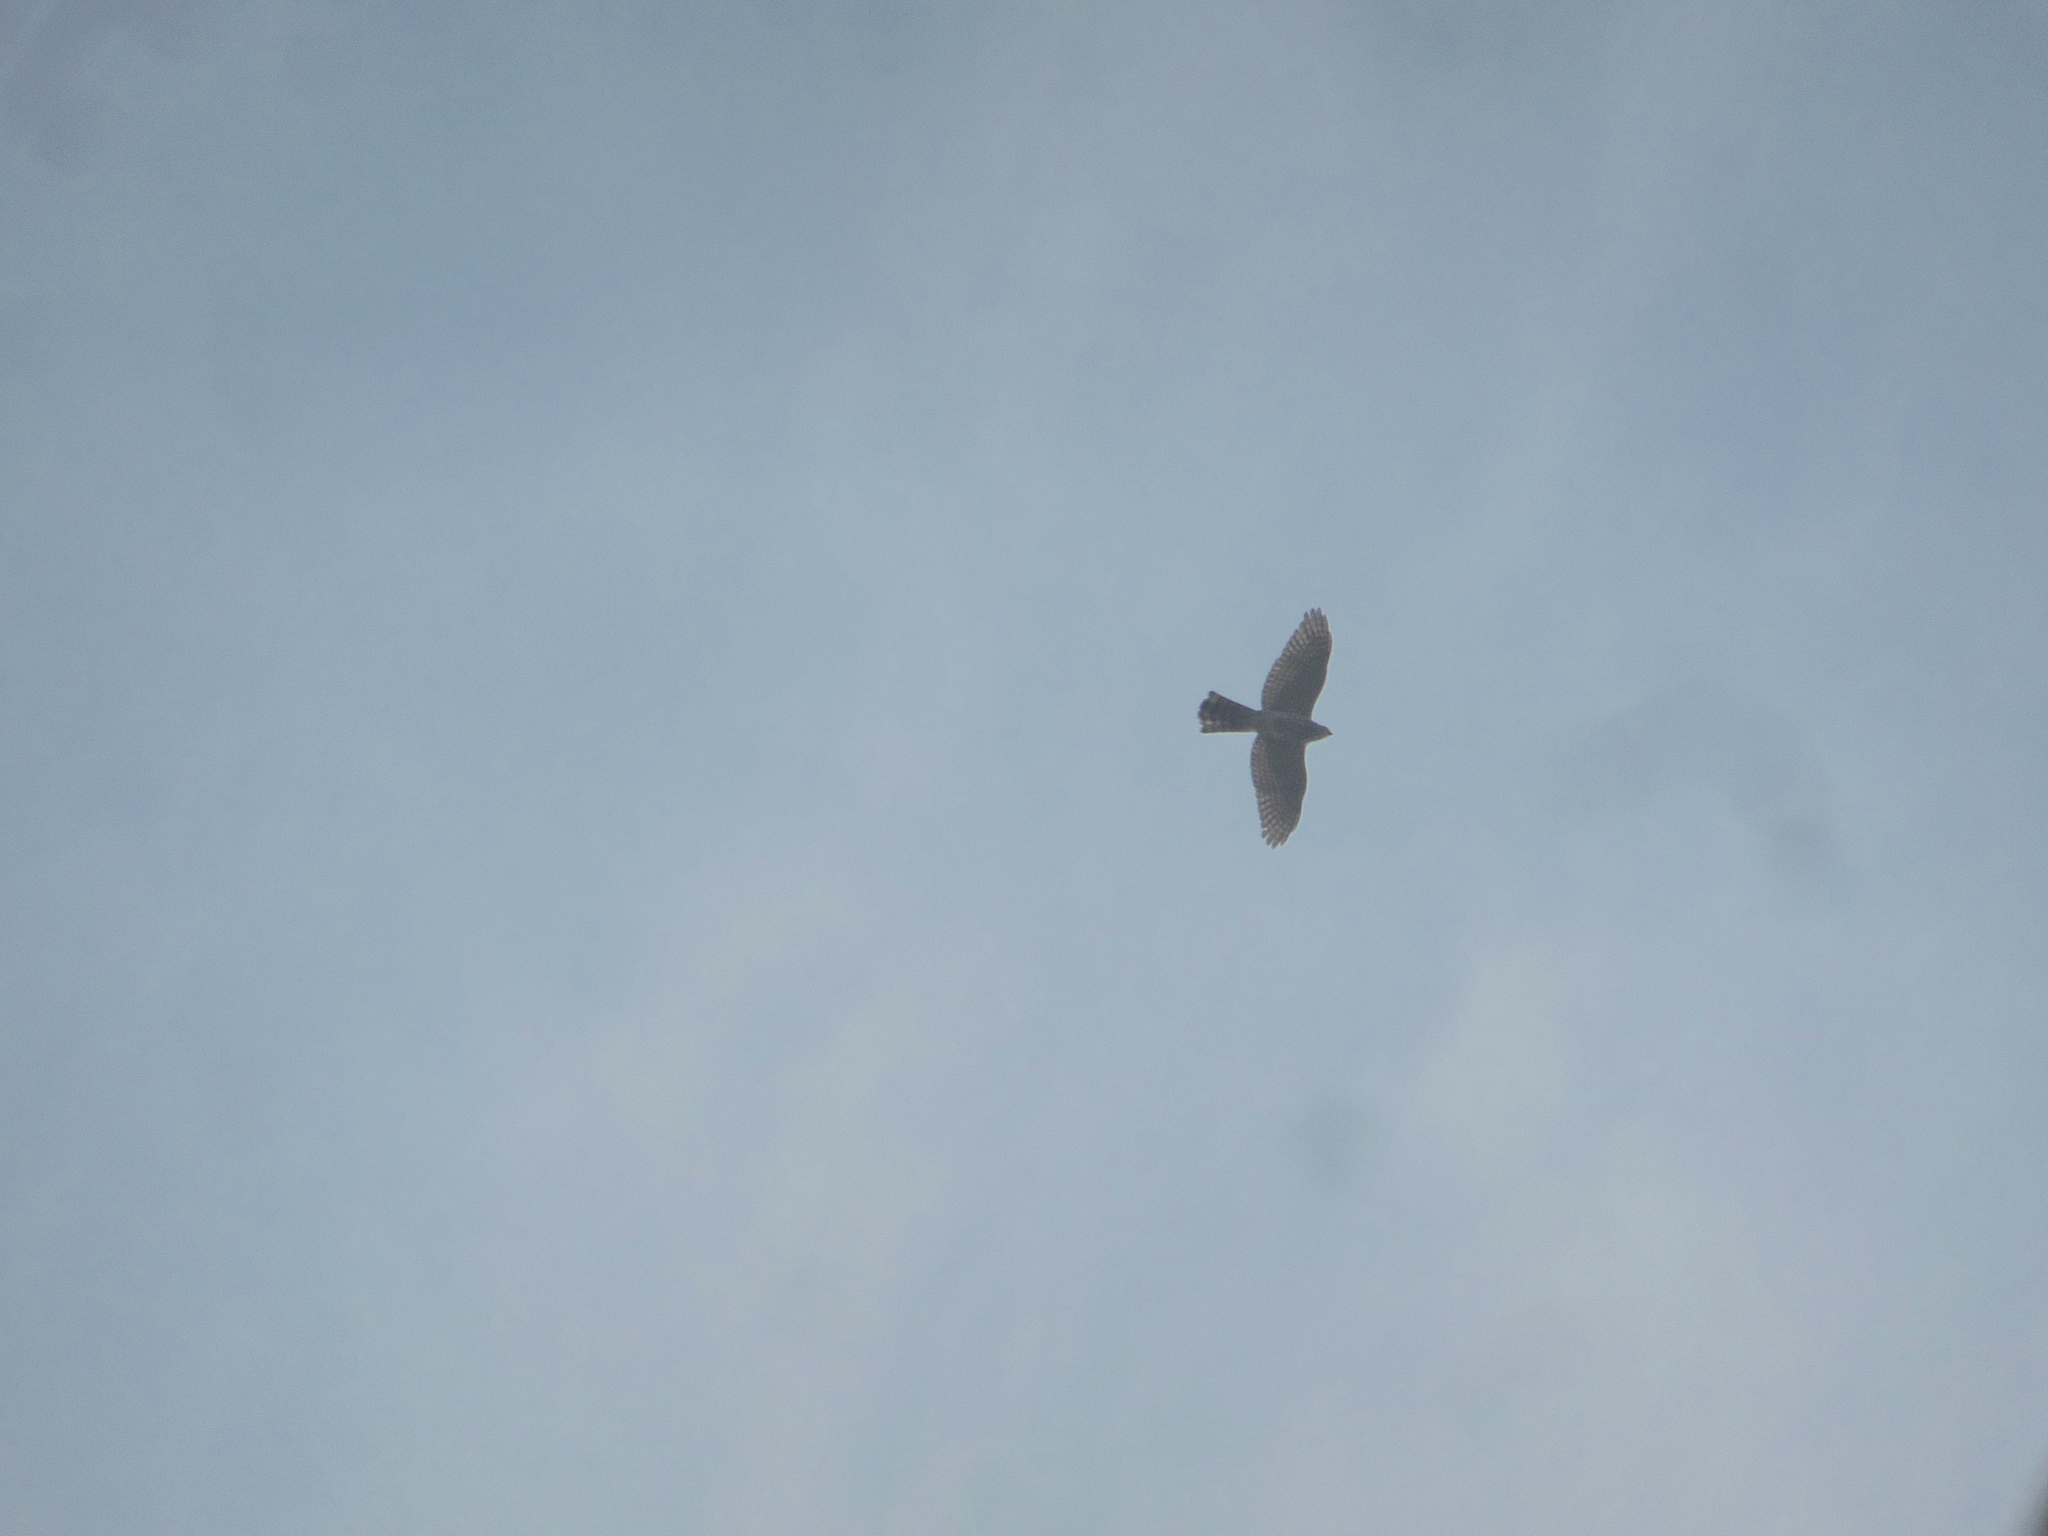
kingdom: Animalia
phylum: Chordata
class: Aves
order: Accipitriformes
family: Accipitridae
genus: Accipiter
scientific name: Accipiter badius
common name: Shikra
